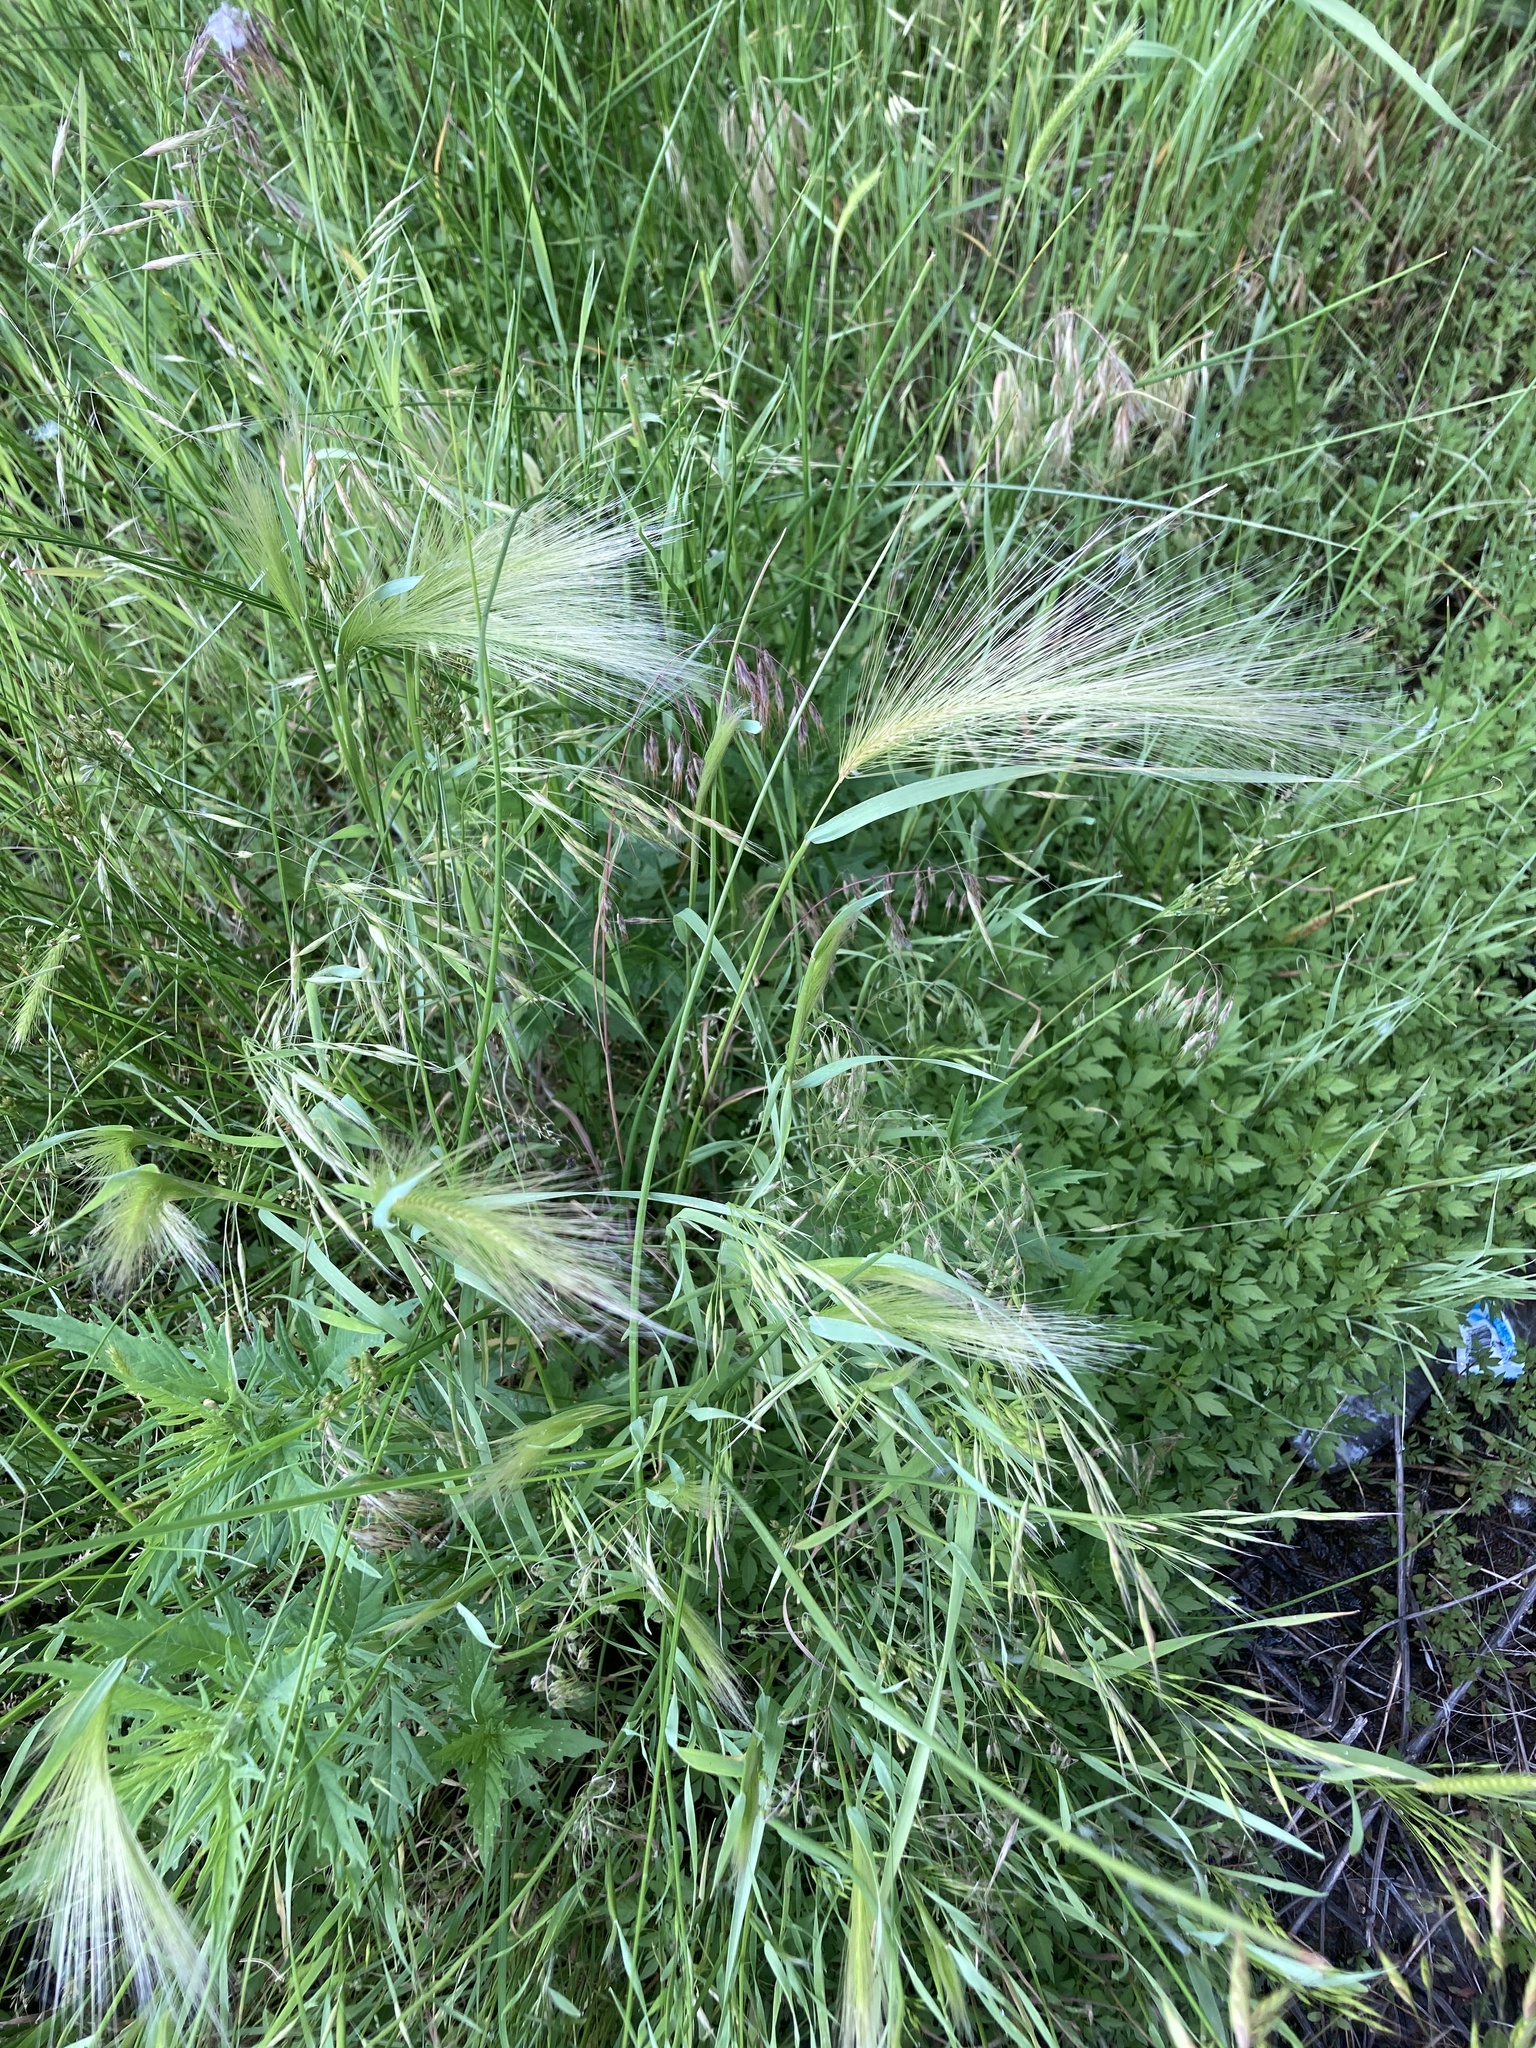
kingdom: Plantae
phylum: Tracheophyta
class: Liliopsida
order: Poales
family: Poaceae
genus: Hordeum
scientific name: Hordeum jubatum
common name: Foxtail barley
